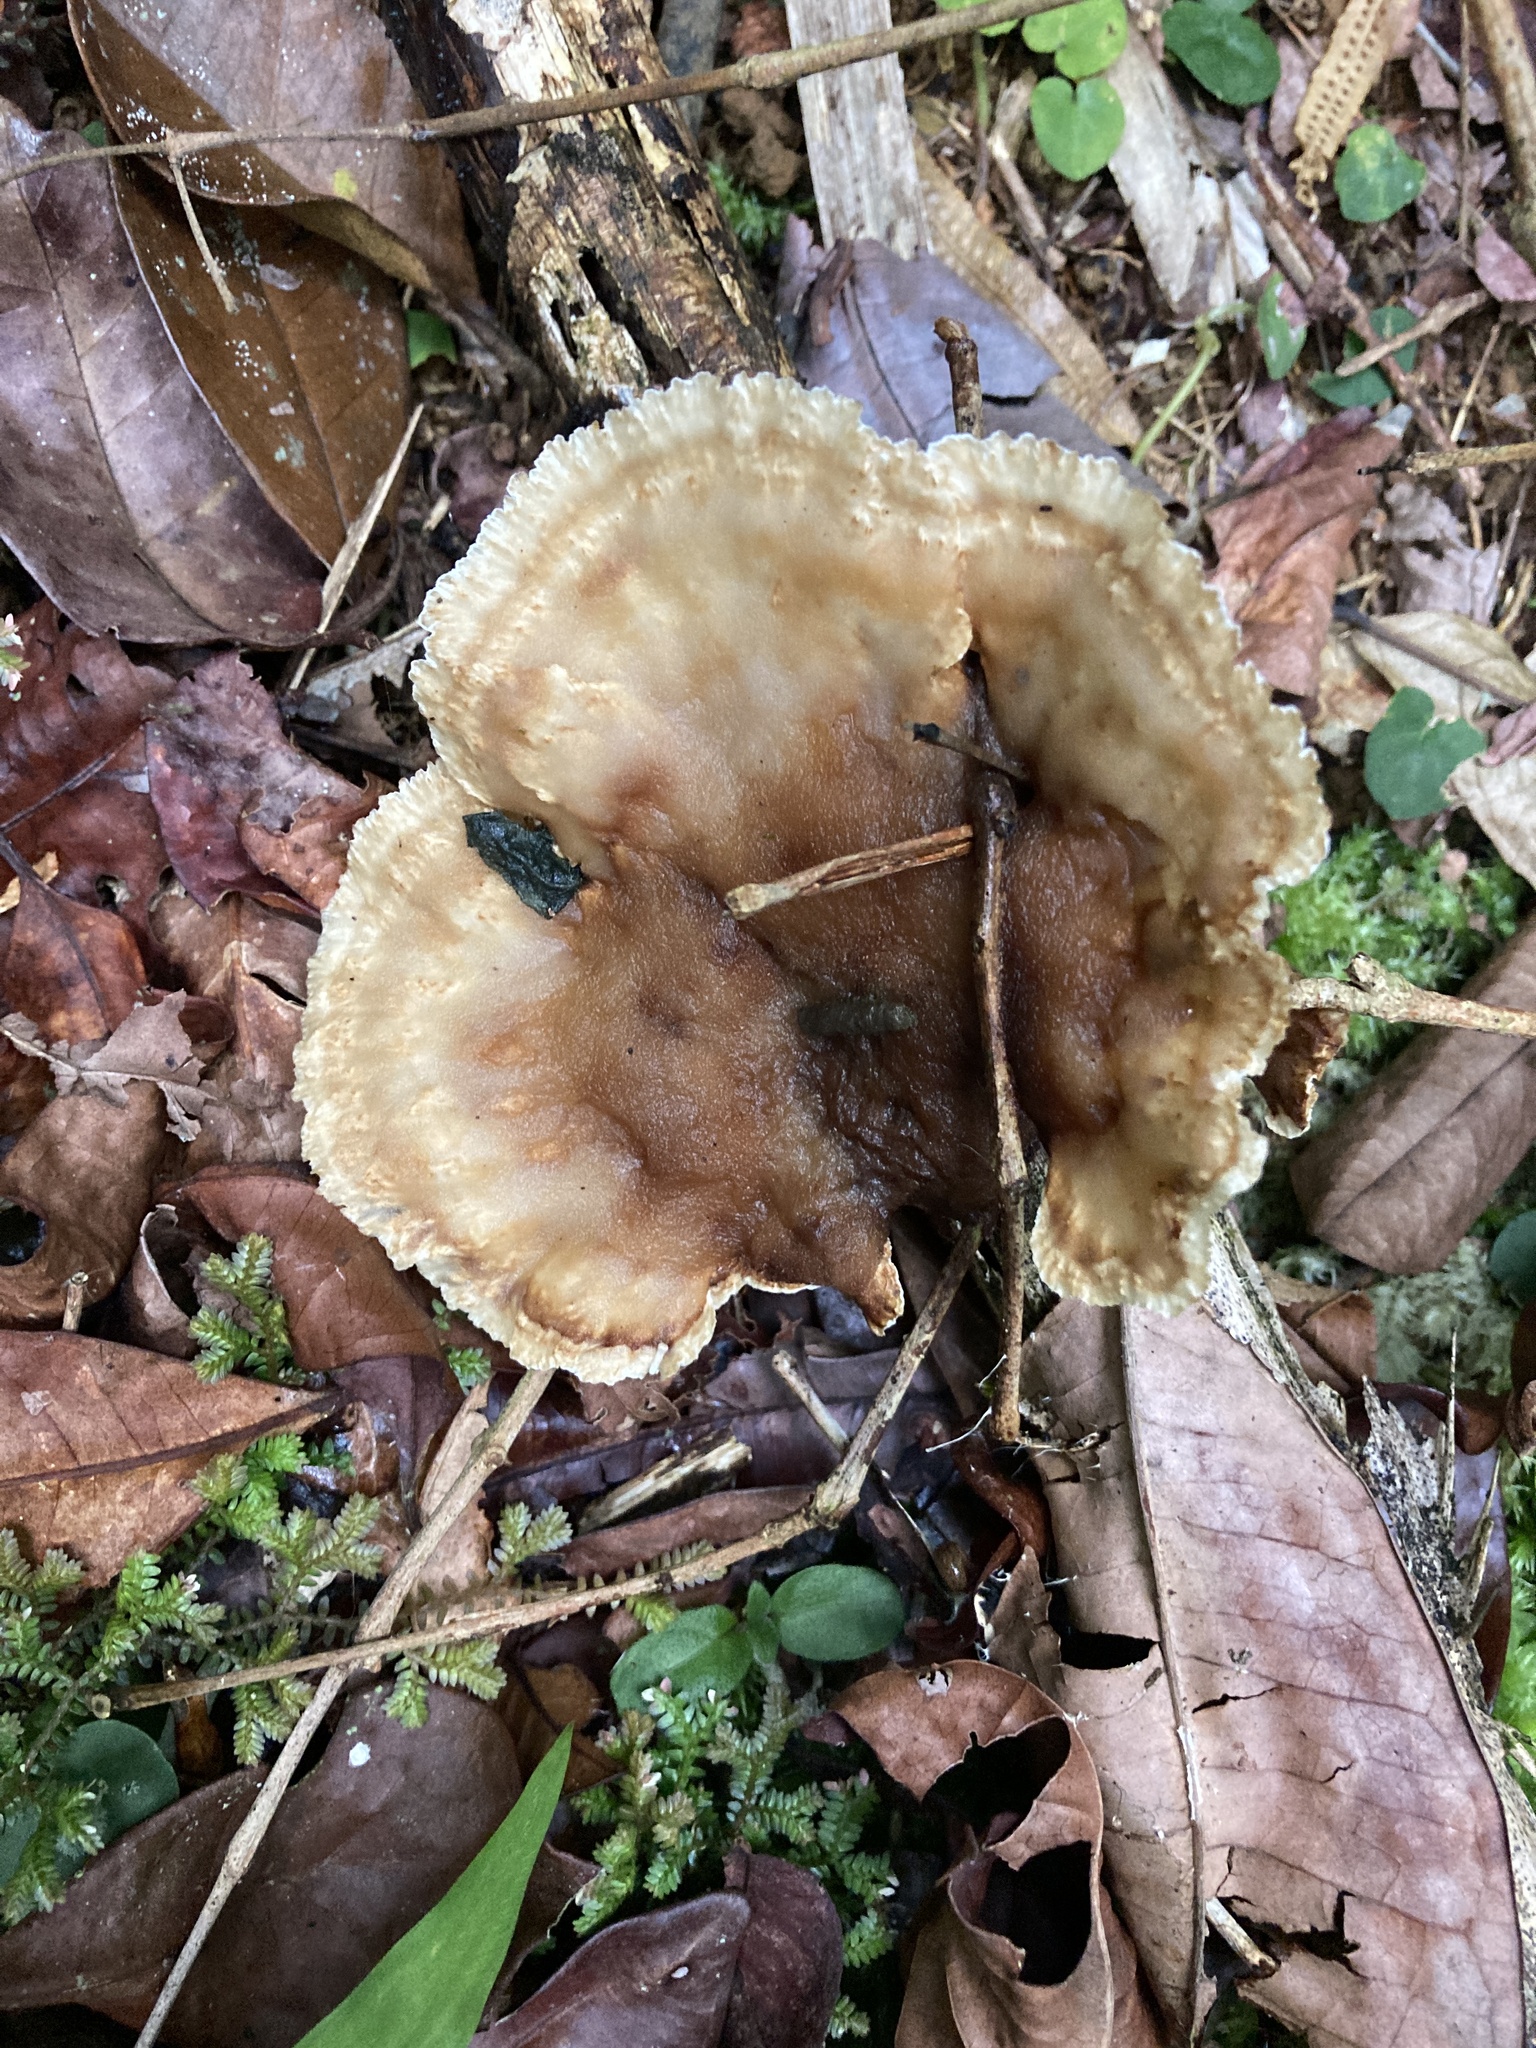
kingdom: Fungi
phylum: Basidiomycota
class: Agaricomycetes
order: Polyporales
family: Panaceae
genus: Cymatoderma
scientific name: Cymatoderma elegans
